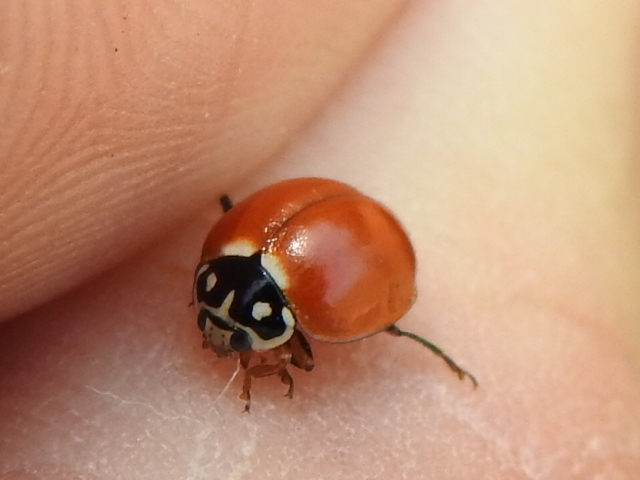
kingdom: Animalia
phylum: Arthropoda
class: Insecta
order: Coleoptera
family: Coccinellidae
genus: Cycloneda
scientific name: Cycloneda sanguinea
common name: Ladybird beetle
